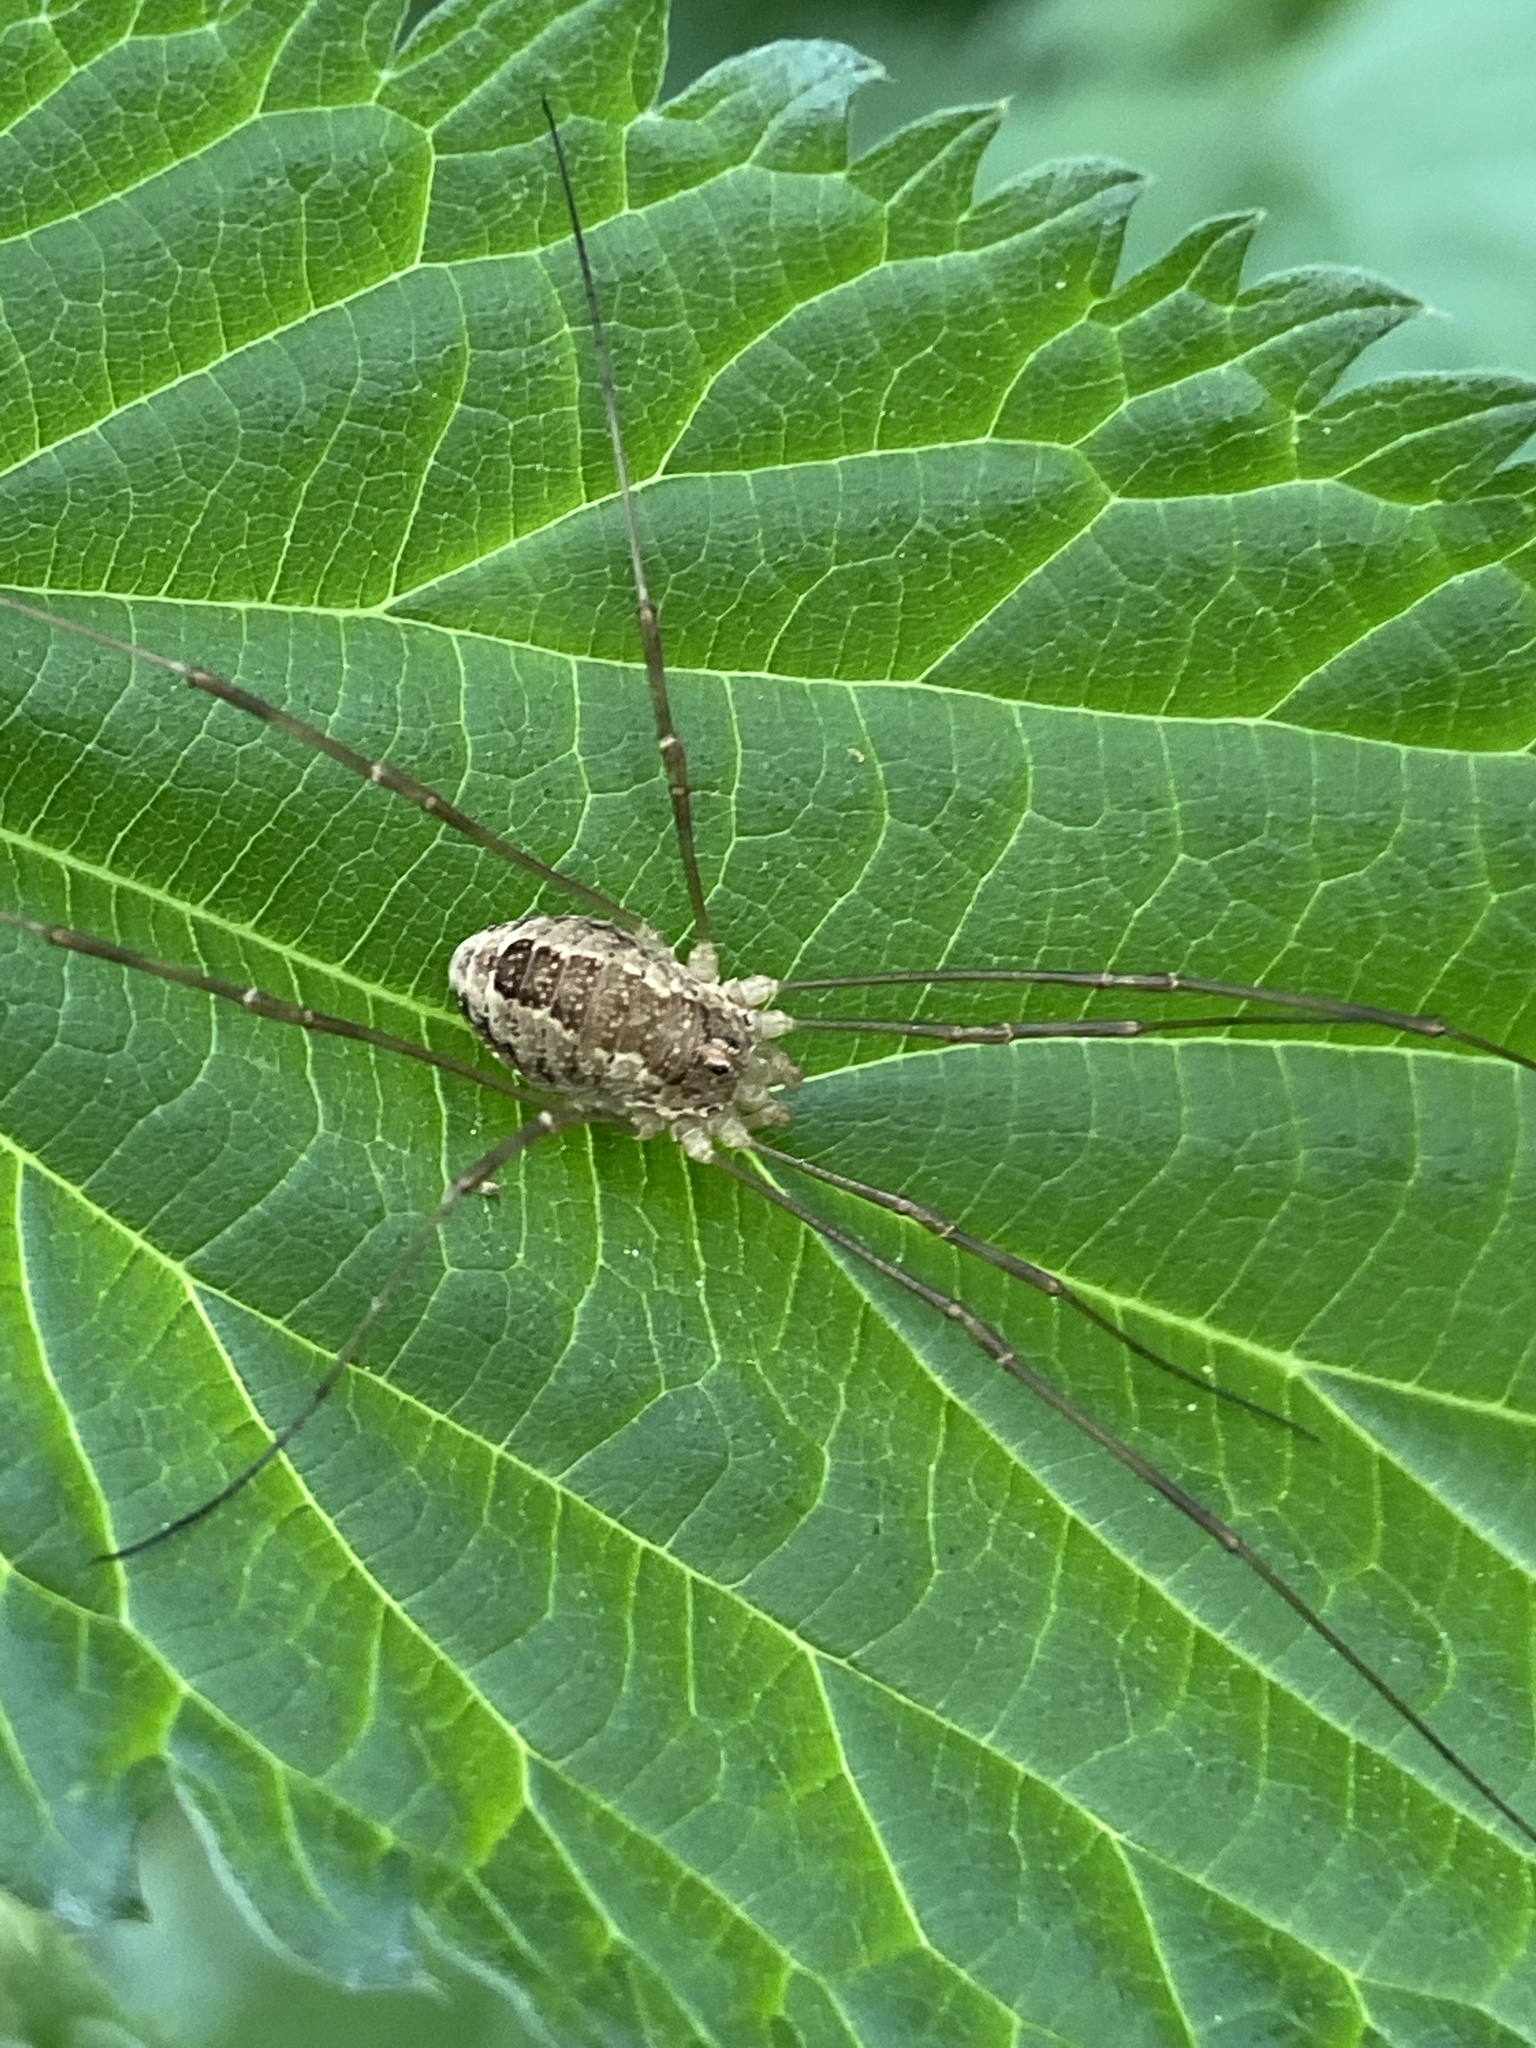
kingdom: Animalia
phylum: Arthropoda
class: Arachnida
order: Opiliones
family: Phalangiidae
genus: Rilaena
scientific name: Rilaena triangularis
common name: Spring harvestman
